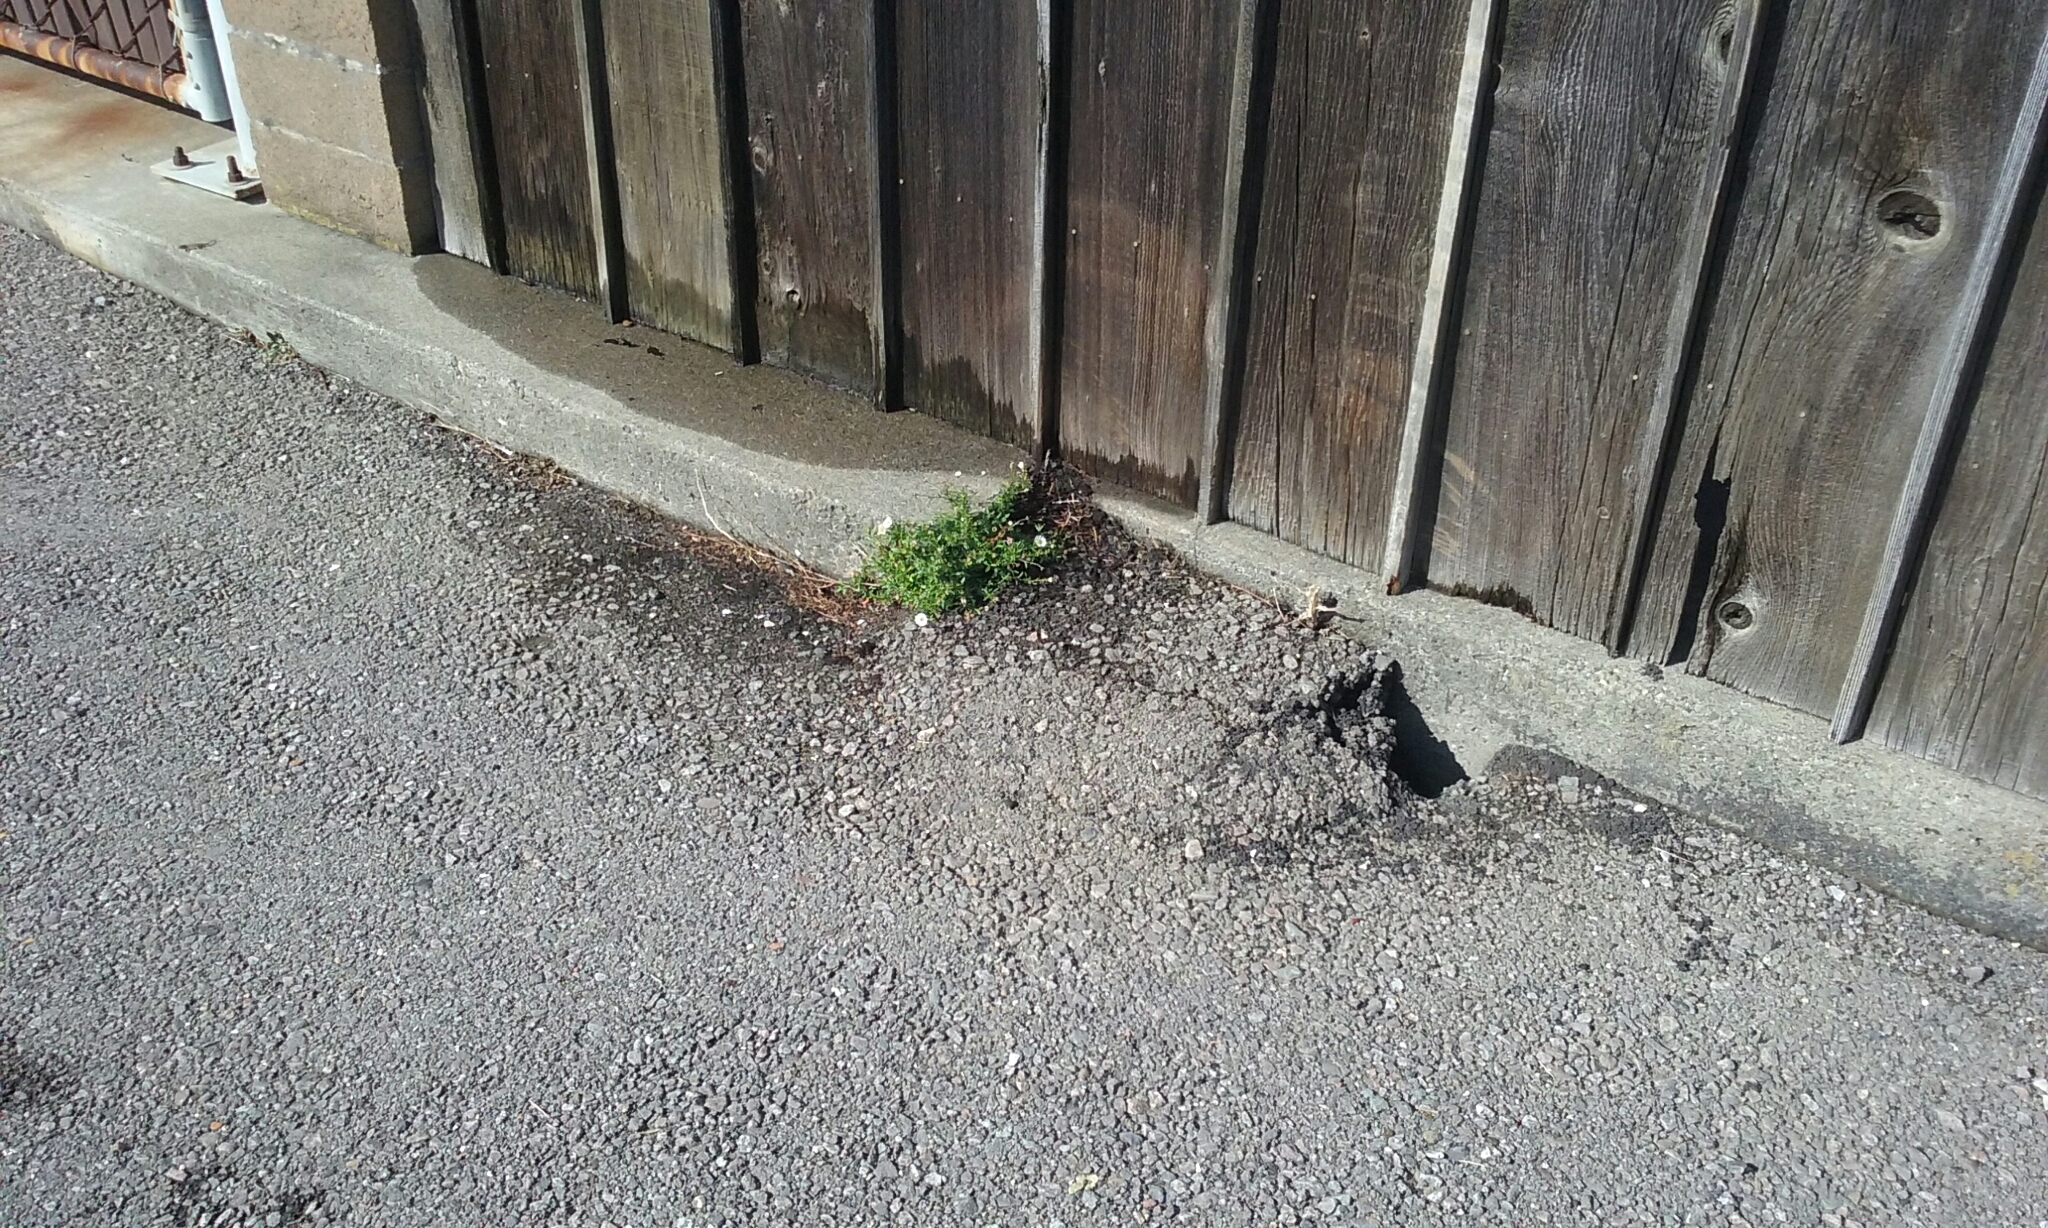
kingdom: Plantae
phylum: Tracheophyta
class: Magnoliopsida
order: Asterales
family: Asteraceae
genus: Erigeron
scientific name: Erigeron karvinskianus
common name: Mexican fleabane
